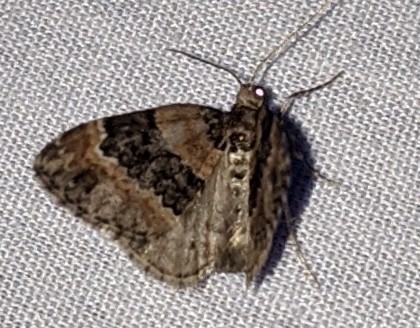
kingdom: Animalia
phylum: Arthropoda
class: Insecta
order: Lepidoptera
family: Geometridae
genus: Martania
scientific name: Martania
